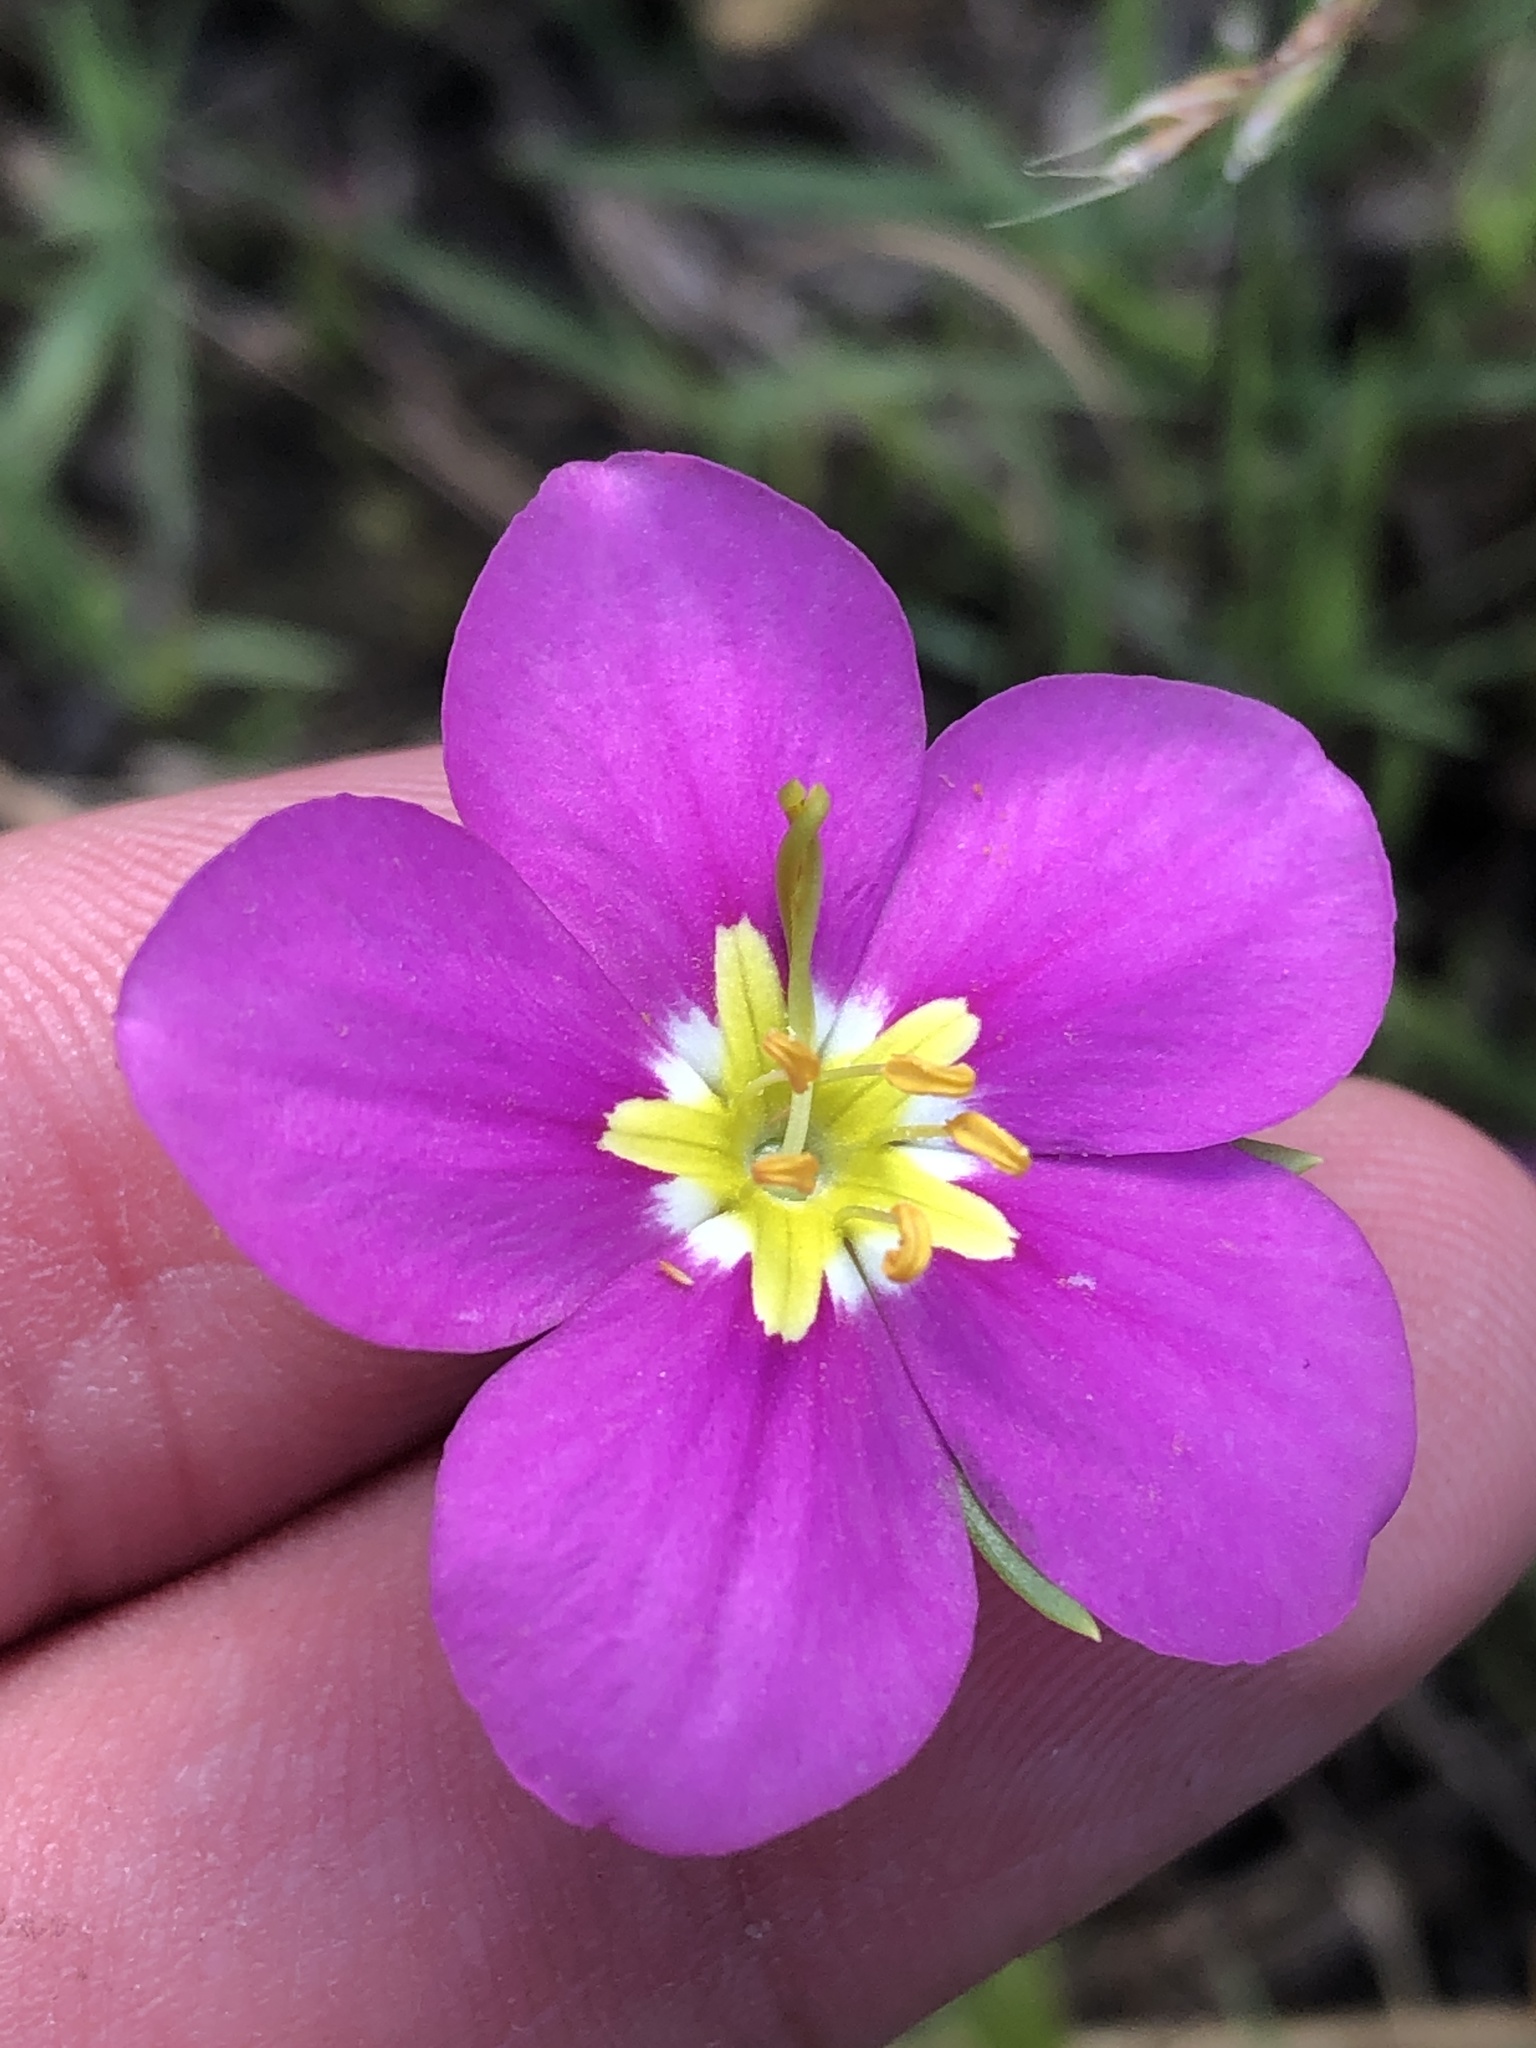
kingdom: Plantae
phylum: Tracheophyta
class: Magnoliopsida
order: Gentianales
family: Gentianaceae
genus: Sabatia
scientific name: Sabatia campestris
